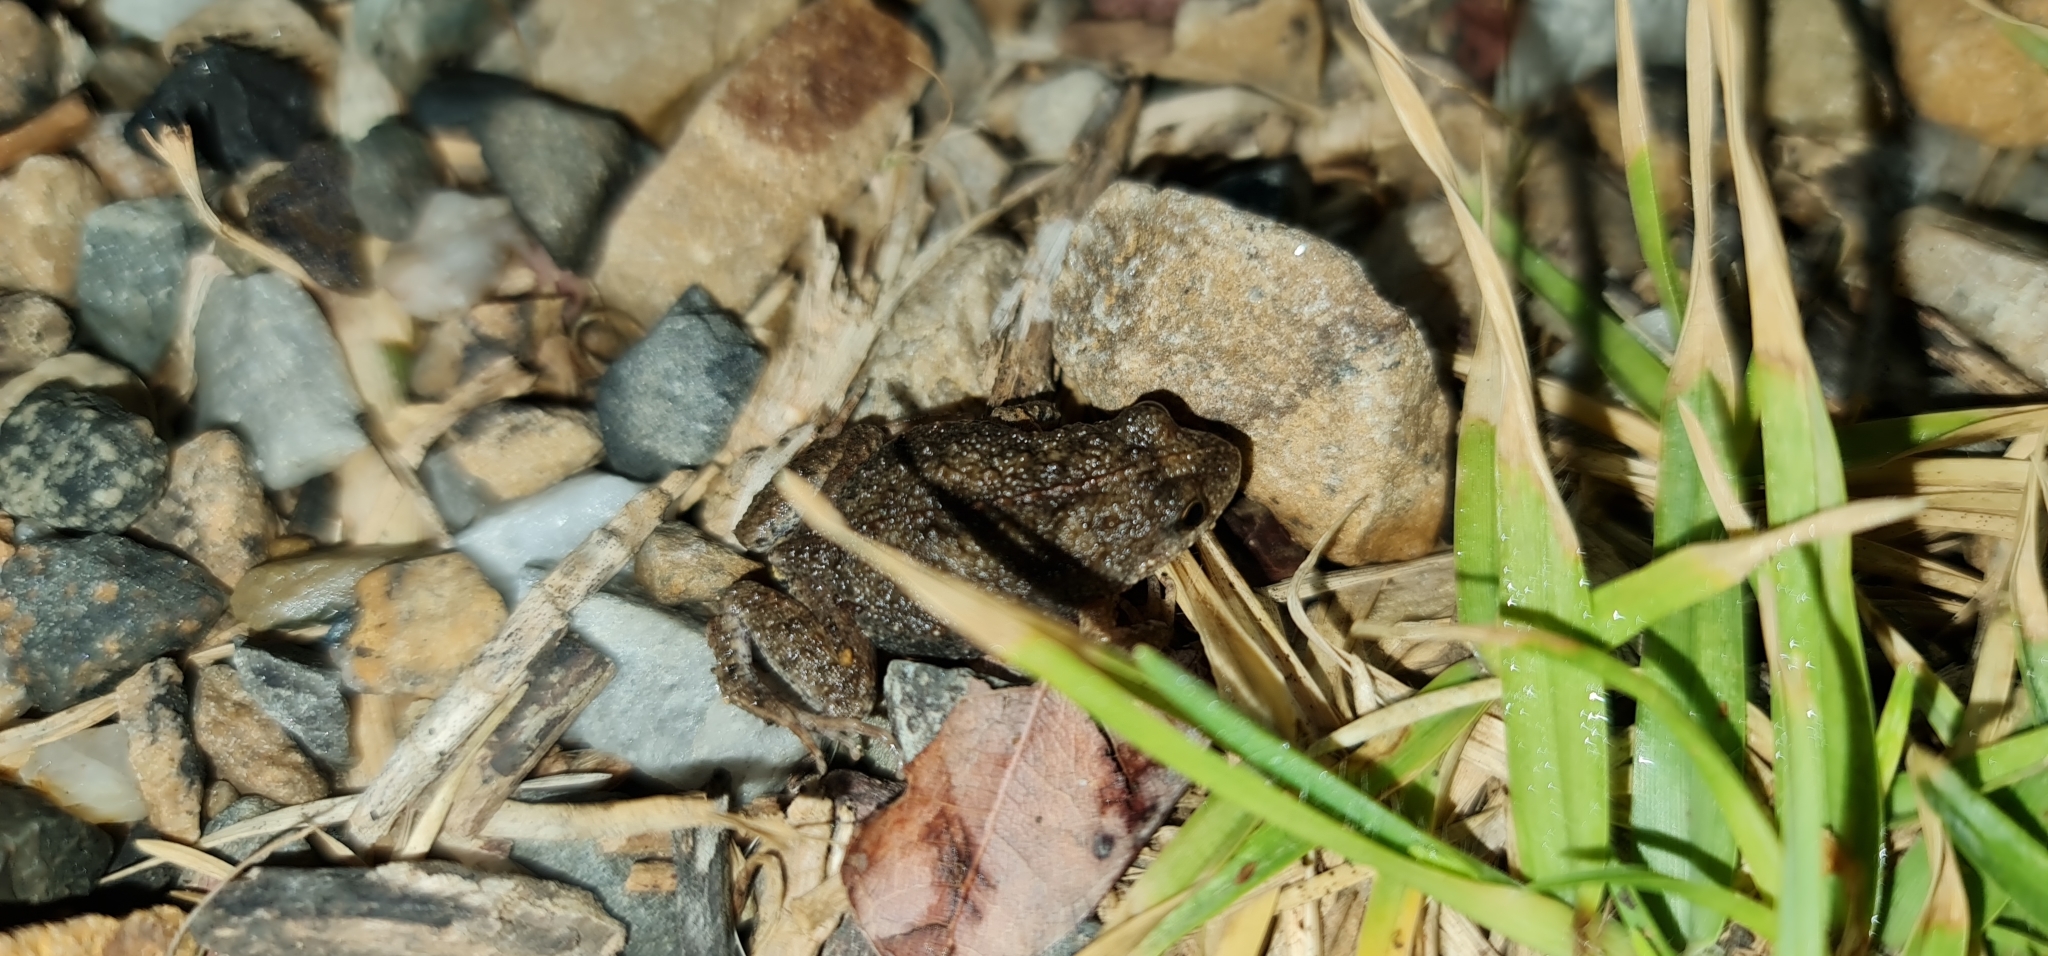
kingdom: Animalia
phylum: Chordata
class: Amphibia
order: Anura
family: Myobatrachidae
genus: Crinia
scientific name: Crinia signifera
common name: Brown froglet
